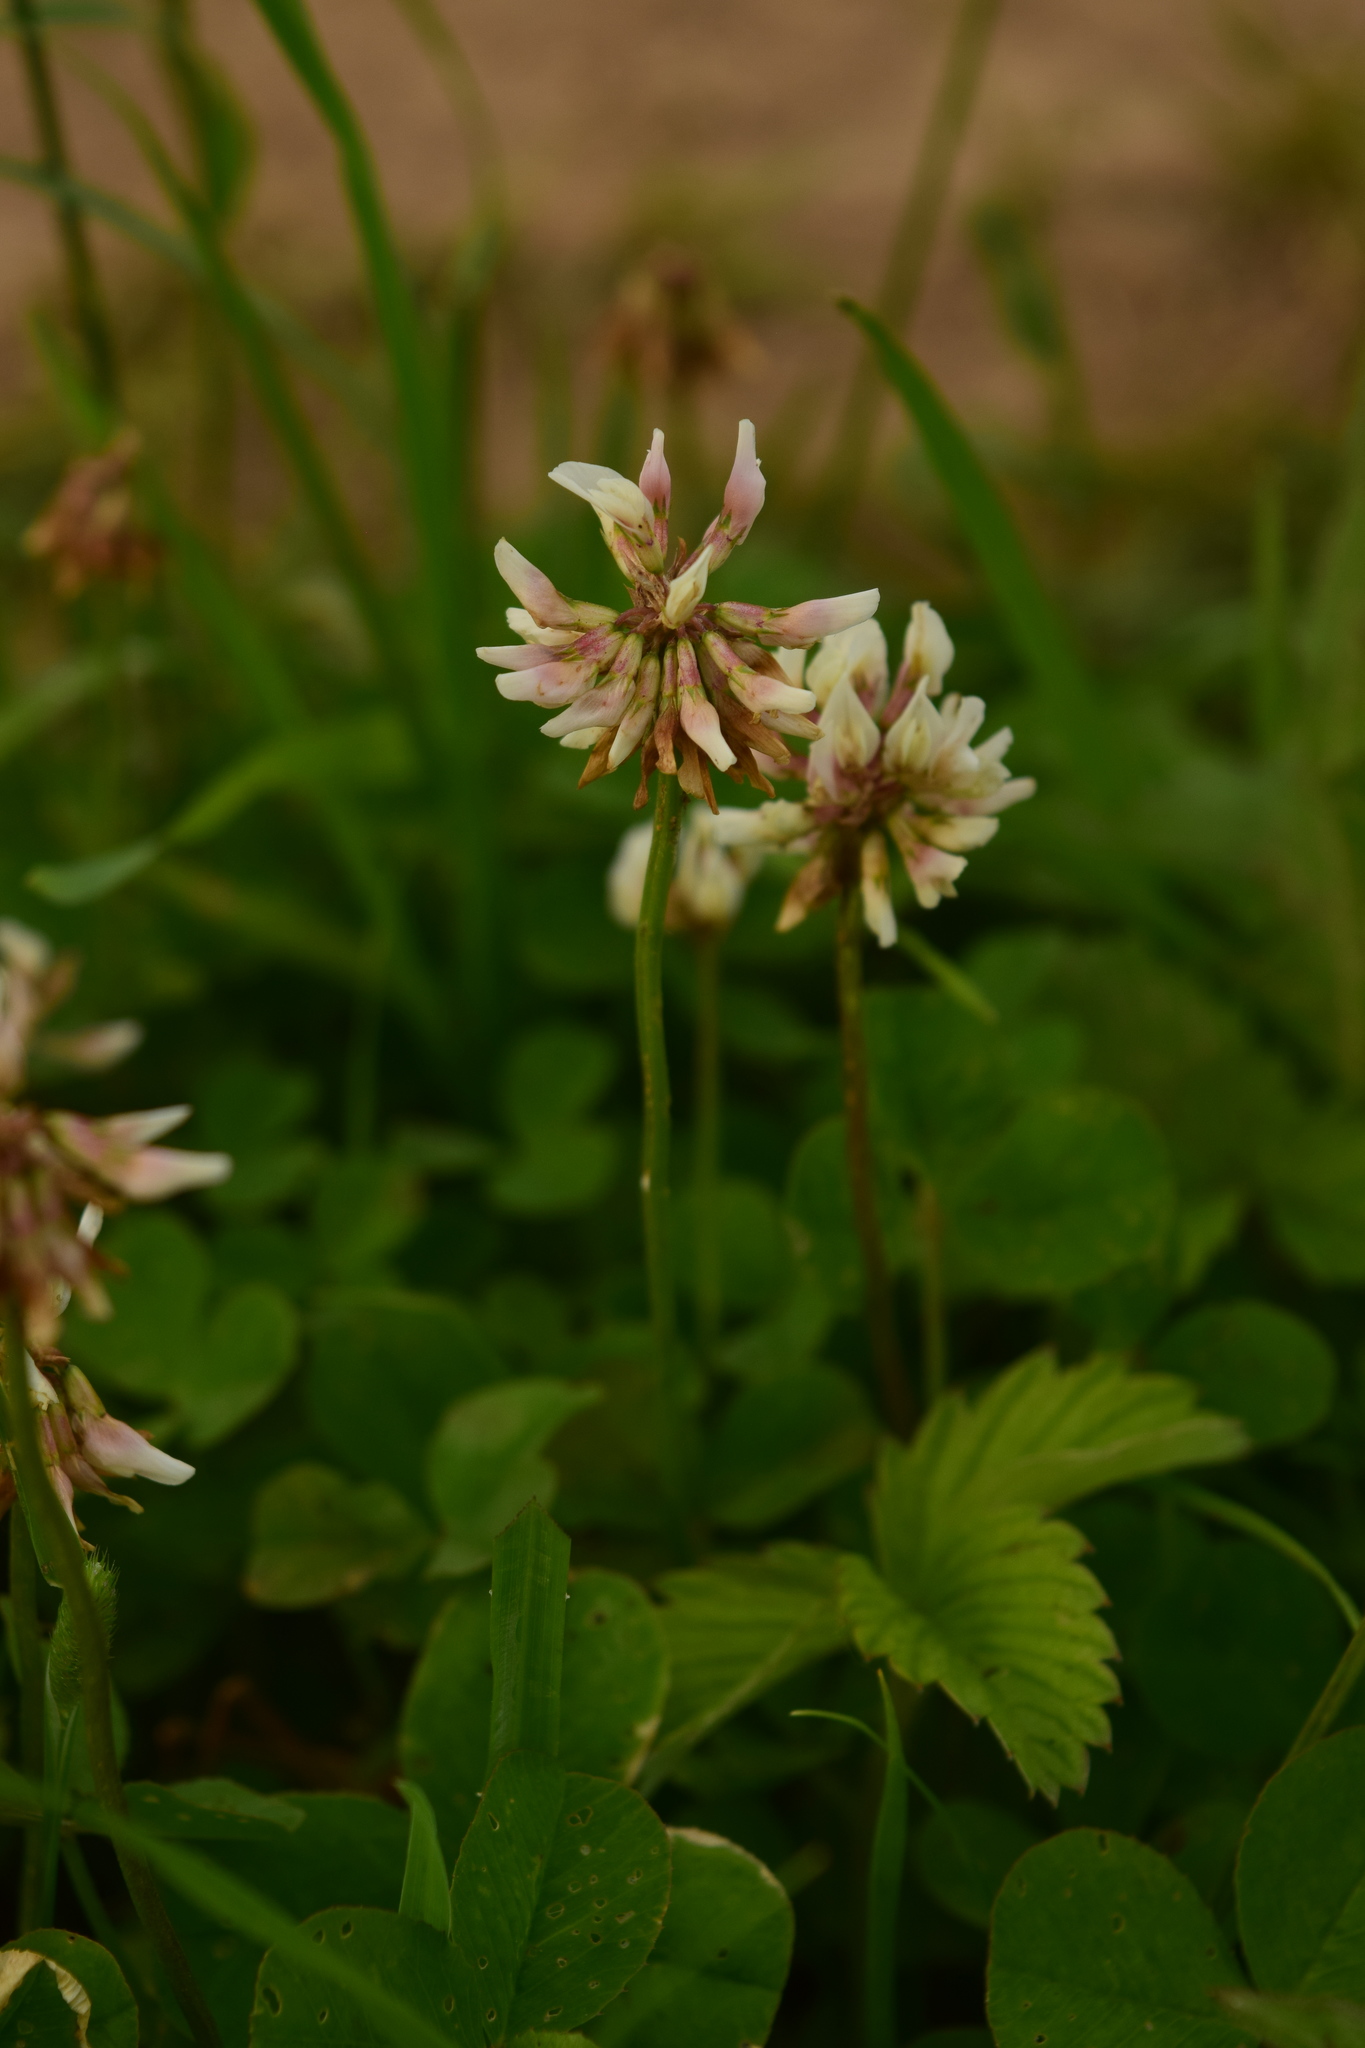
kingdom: Plantae
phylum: Tracheophyta
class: Magnoliopsida
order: Fabales
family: Fabaceae
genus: Trifolium
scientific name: Trifolium repens
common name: White clover
